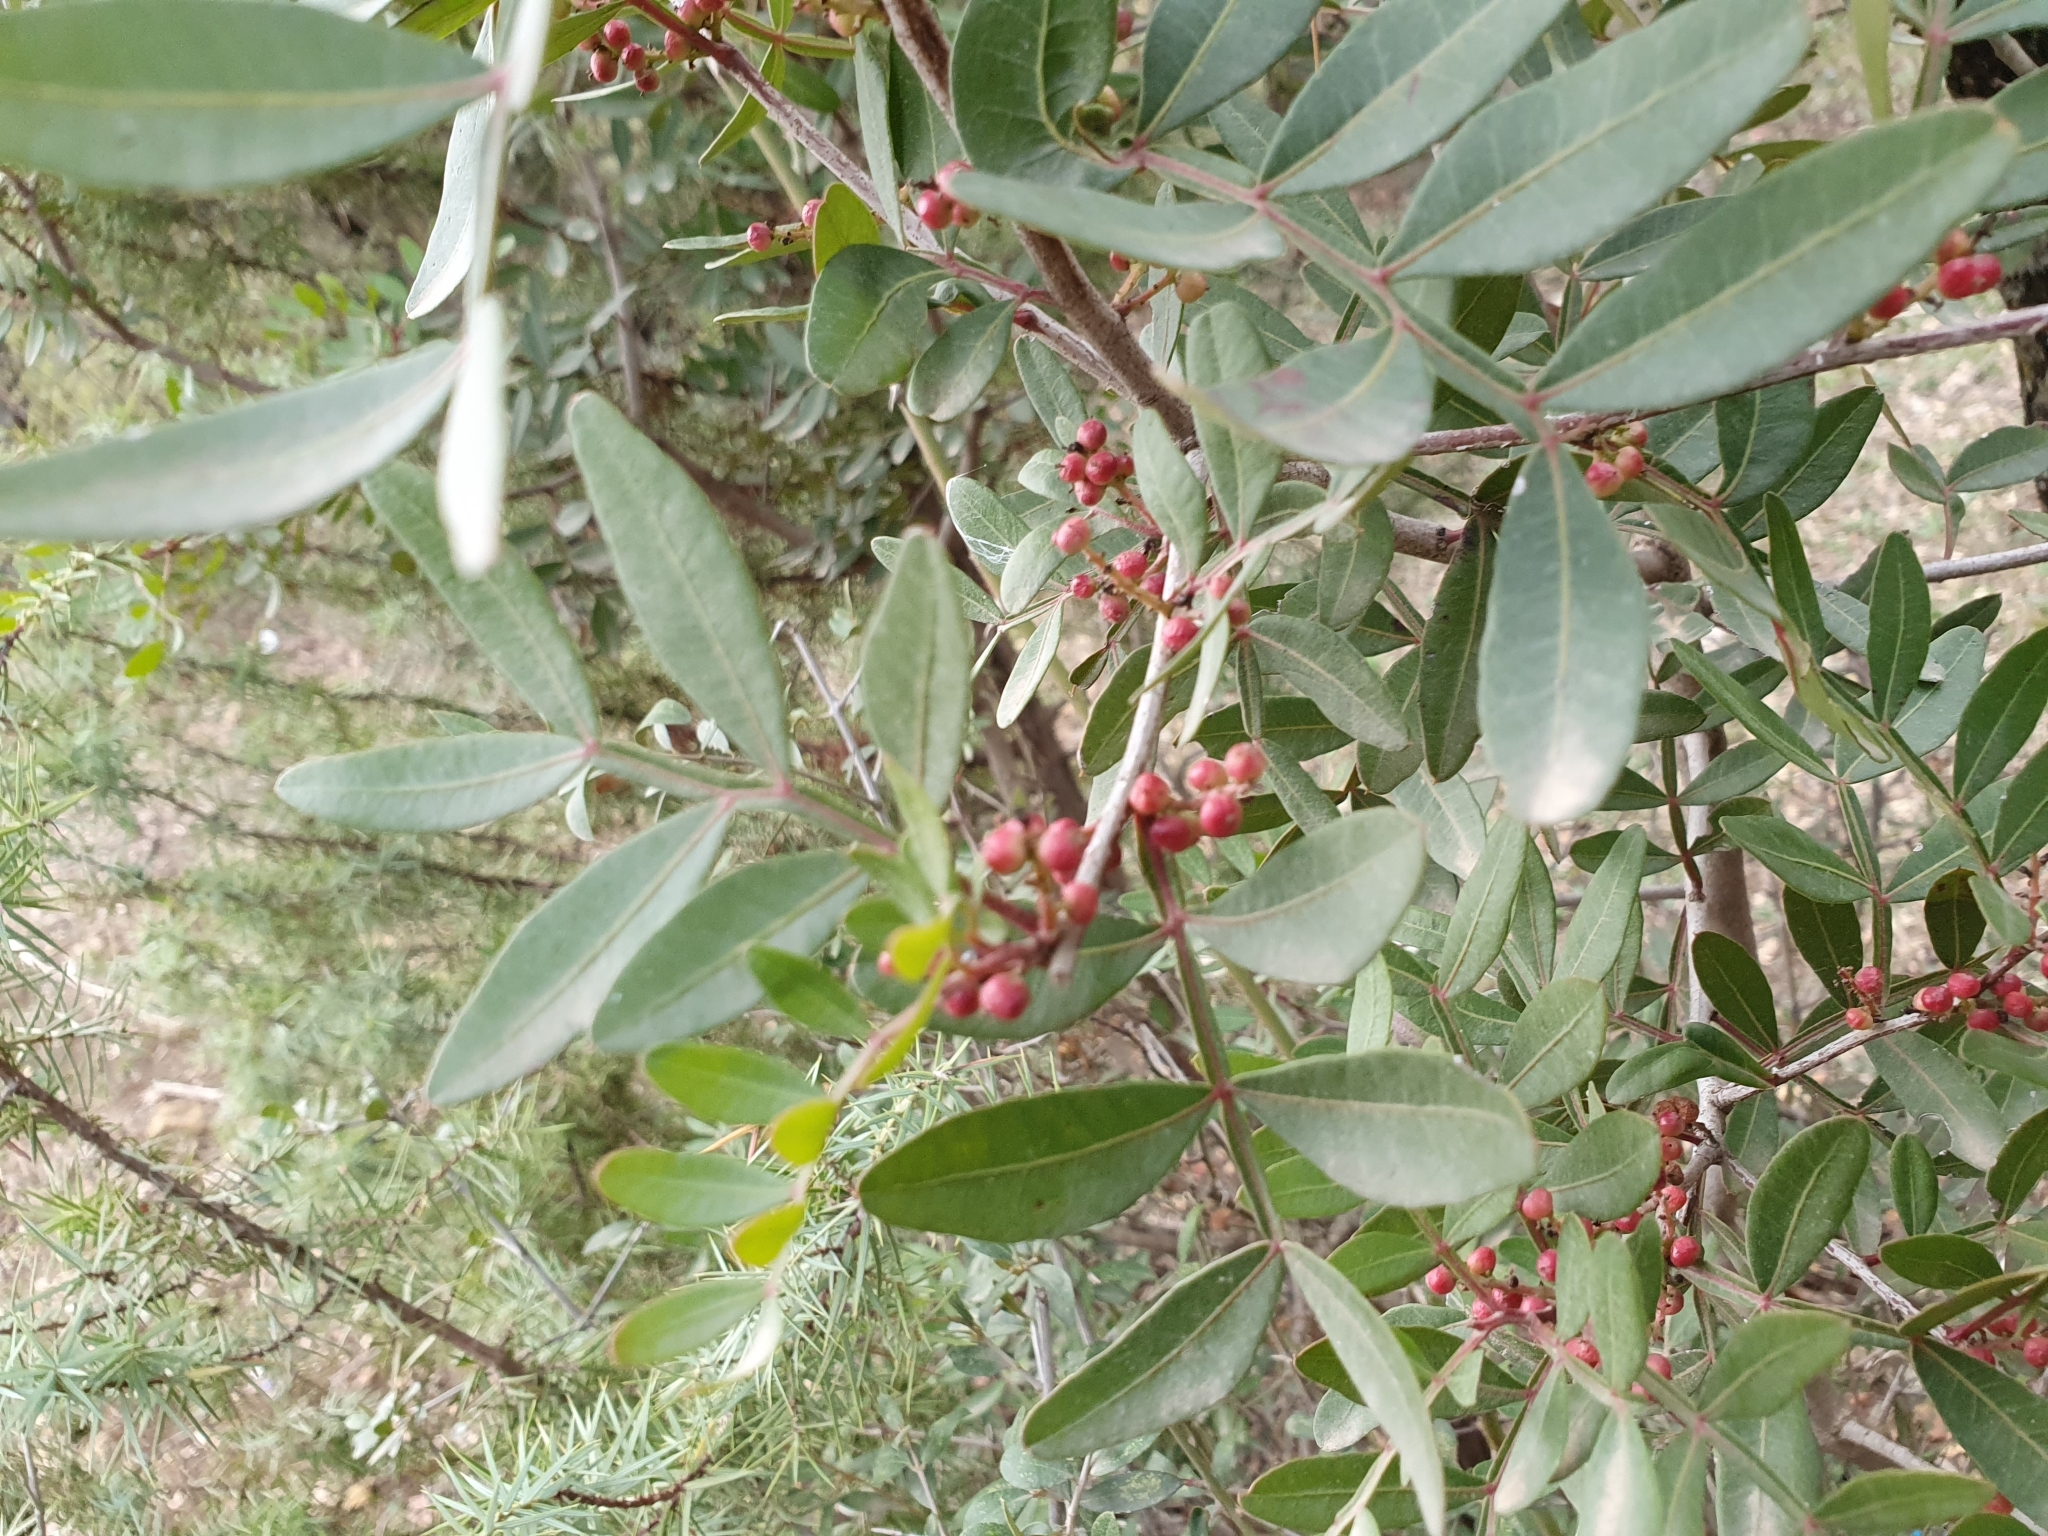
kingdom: Plantae
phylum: Tracheophyta
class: Magnoliopsida
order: Sapindales
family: Anacardiaceae
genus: Pistacia
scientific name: Pistacia lentiscus
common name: Lentisk
